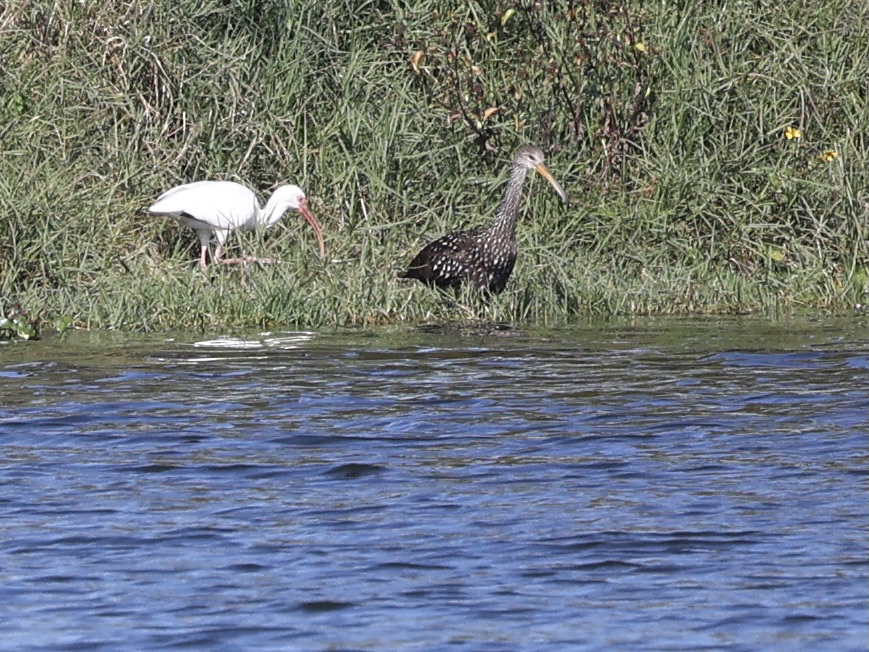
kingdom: Animalia
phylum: Chordata
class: Aves
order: Gruiformes
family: Aramidae
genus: Aramus
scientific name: Aramus guarauna
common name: Limpkin
